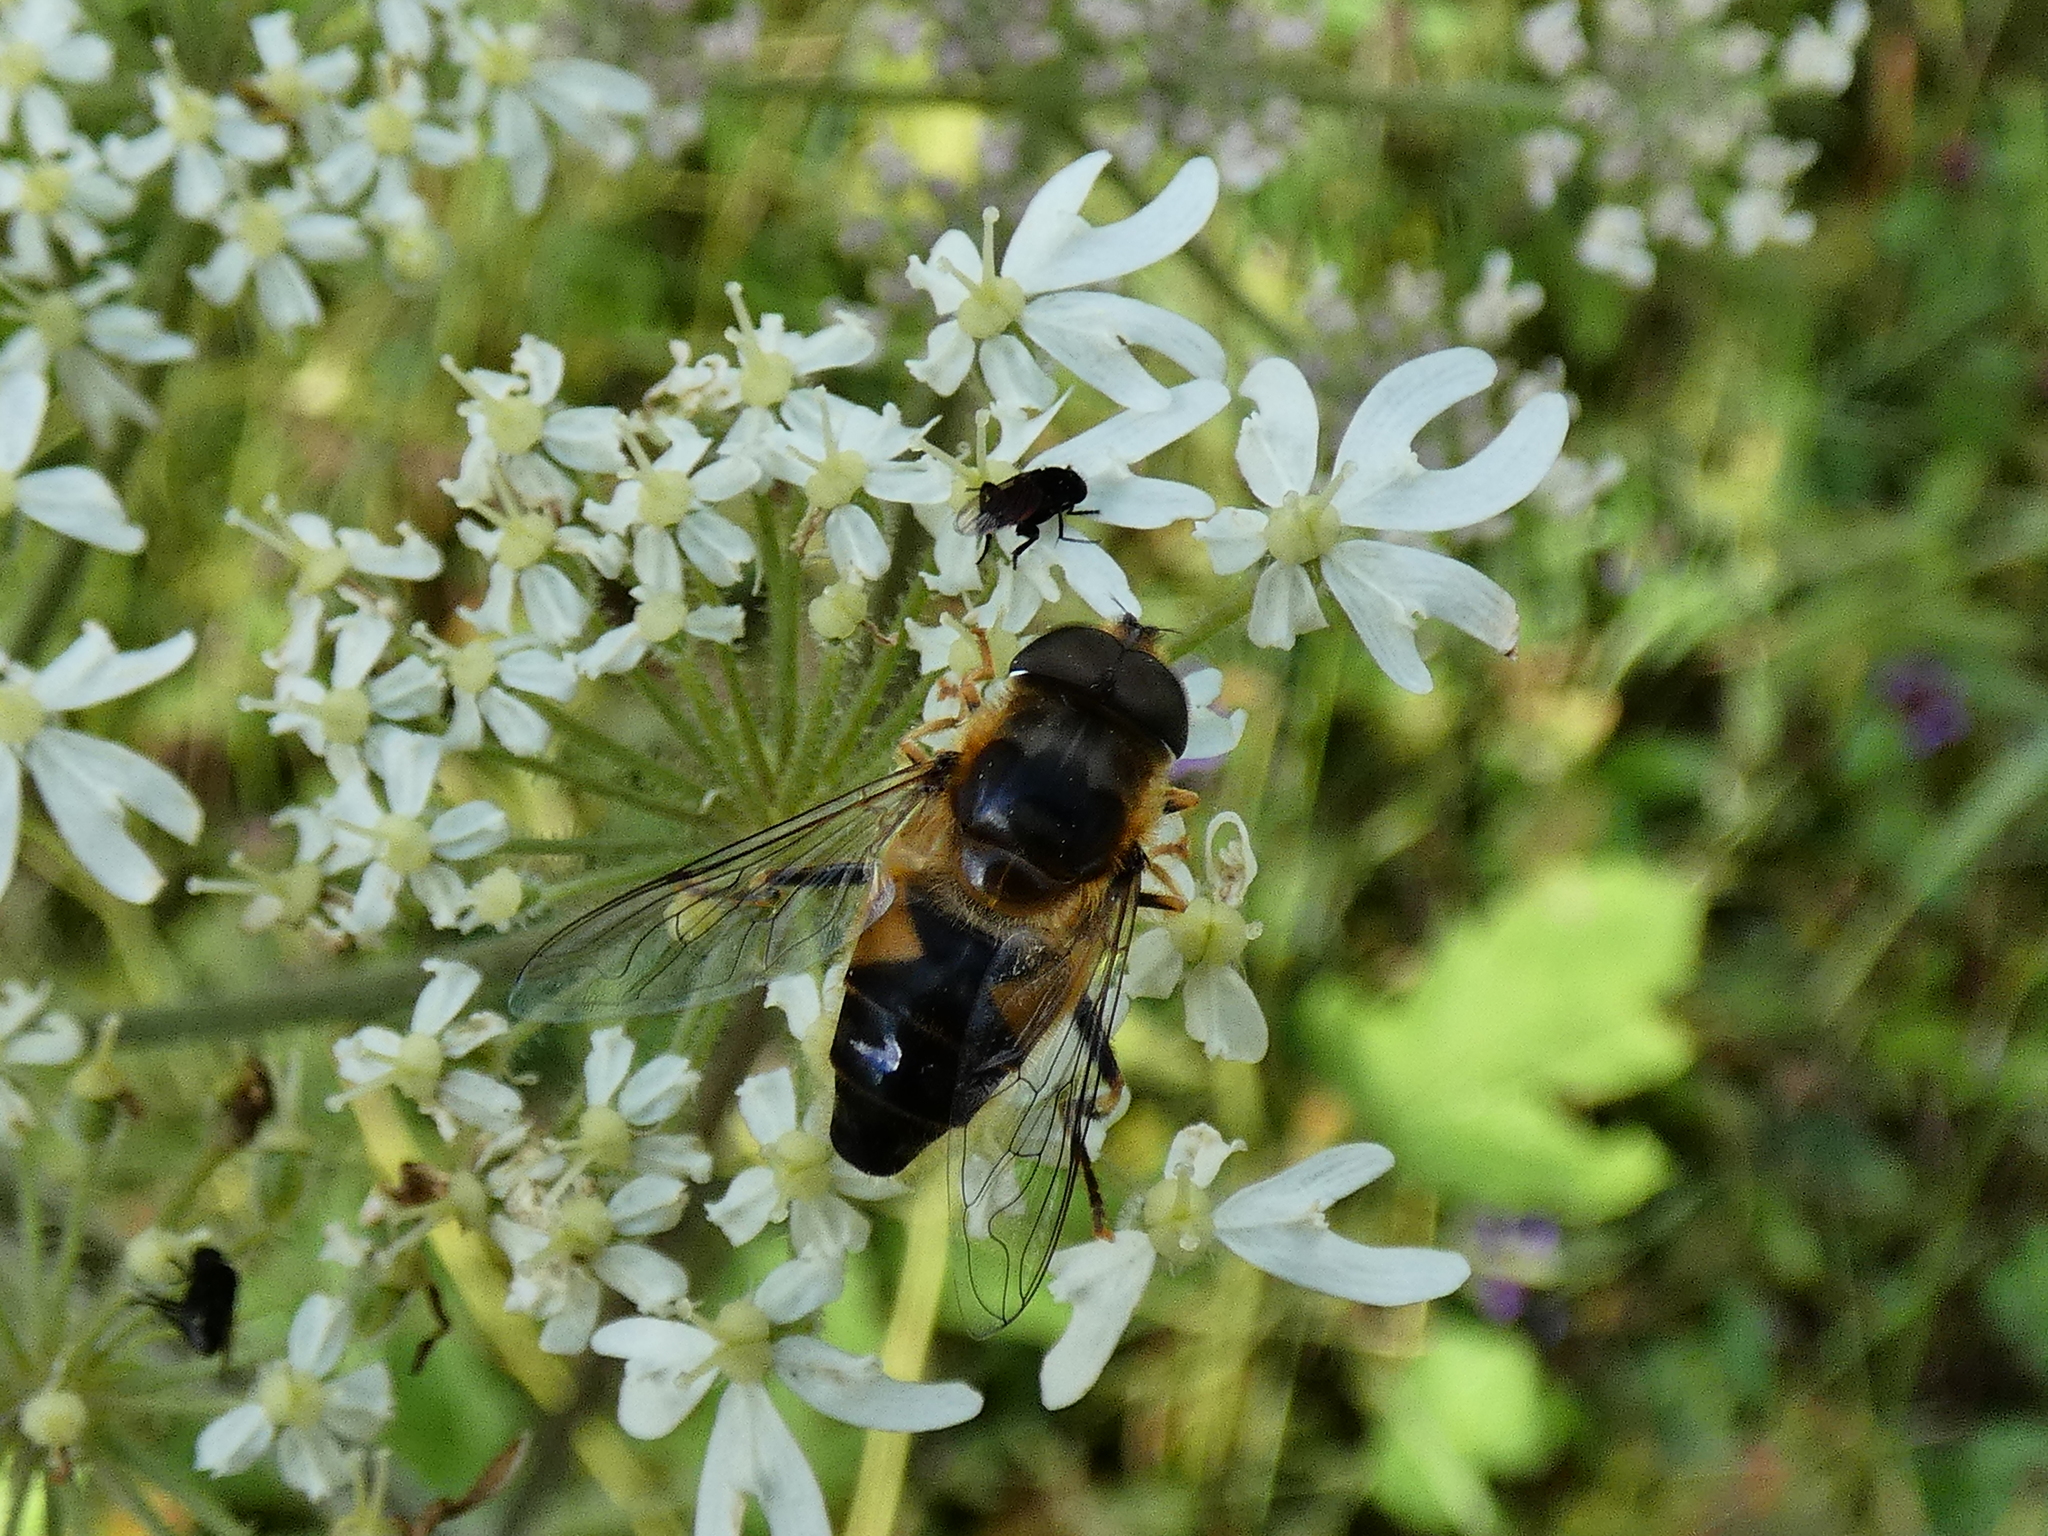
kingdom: Animalia
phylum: Arthropoda
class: Insecta
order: Diptera
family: Syrphidae
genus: Eristalis
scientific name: Eristalis pertinax
